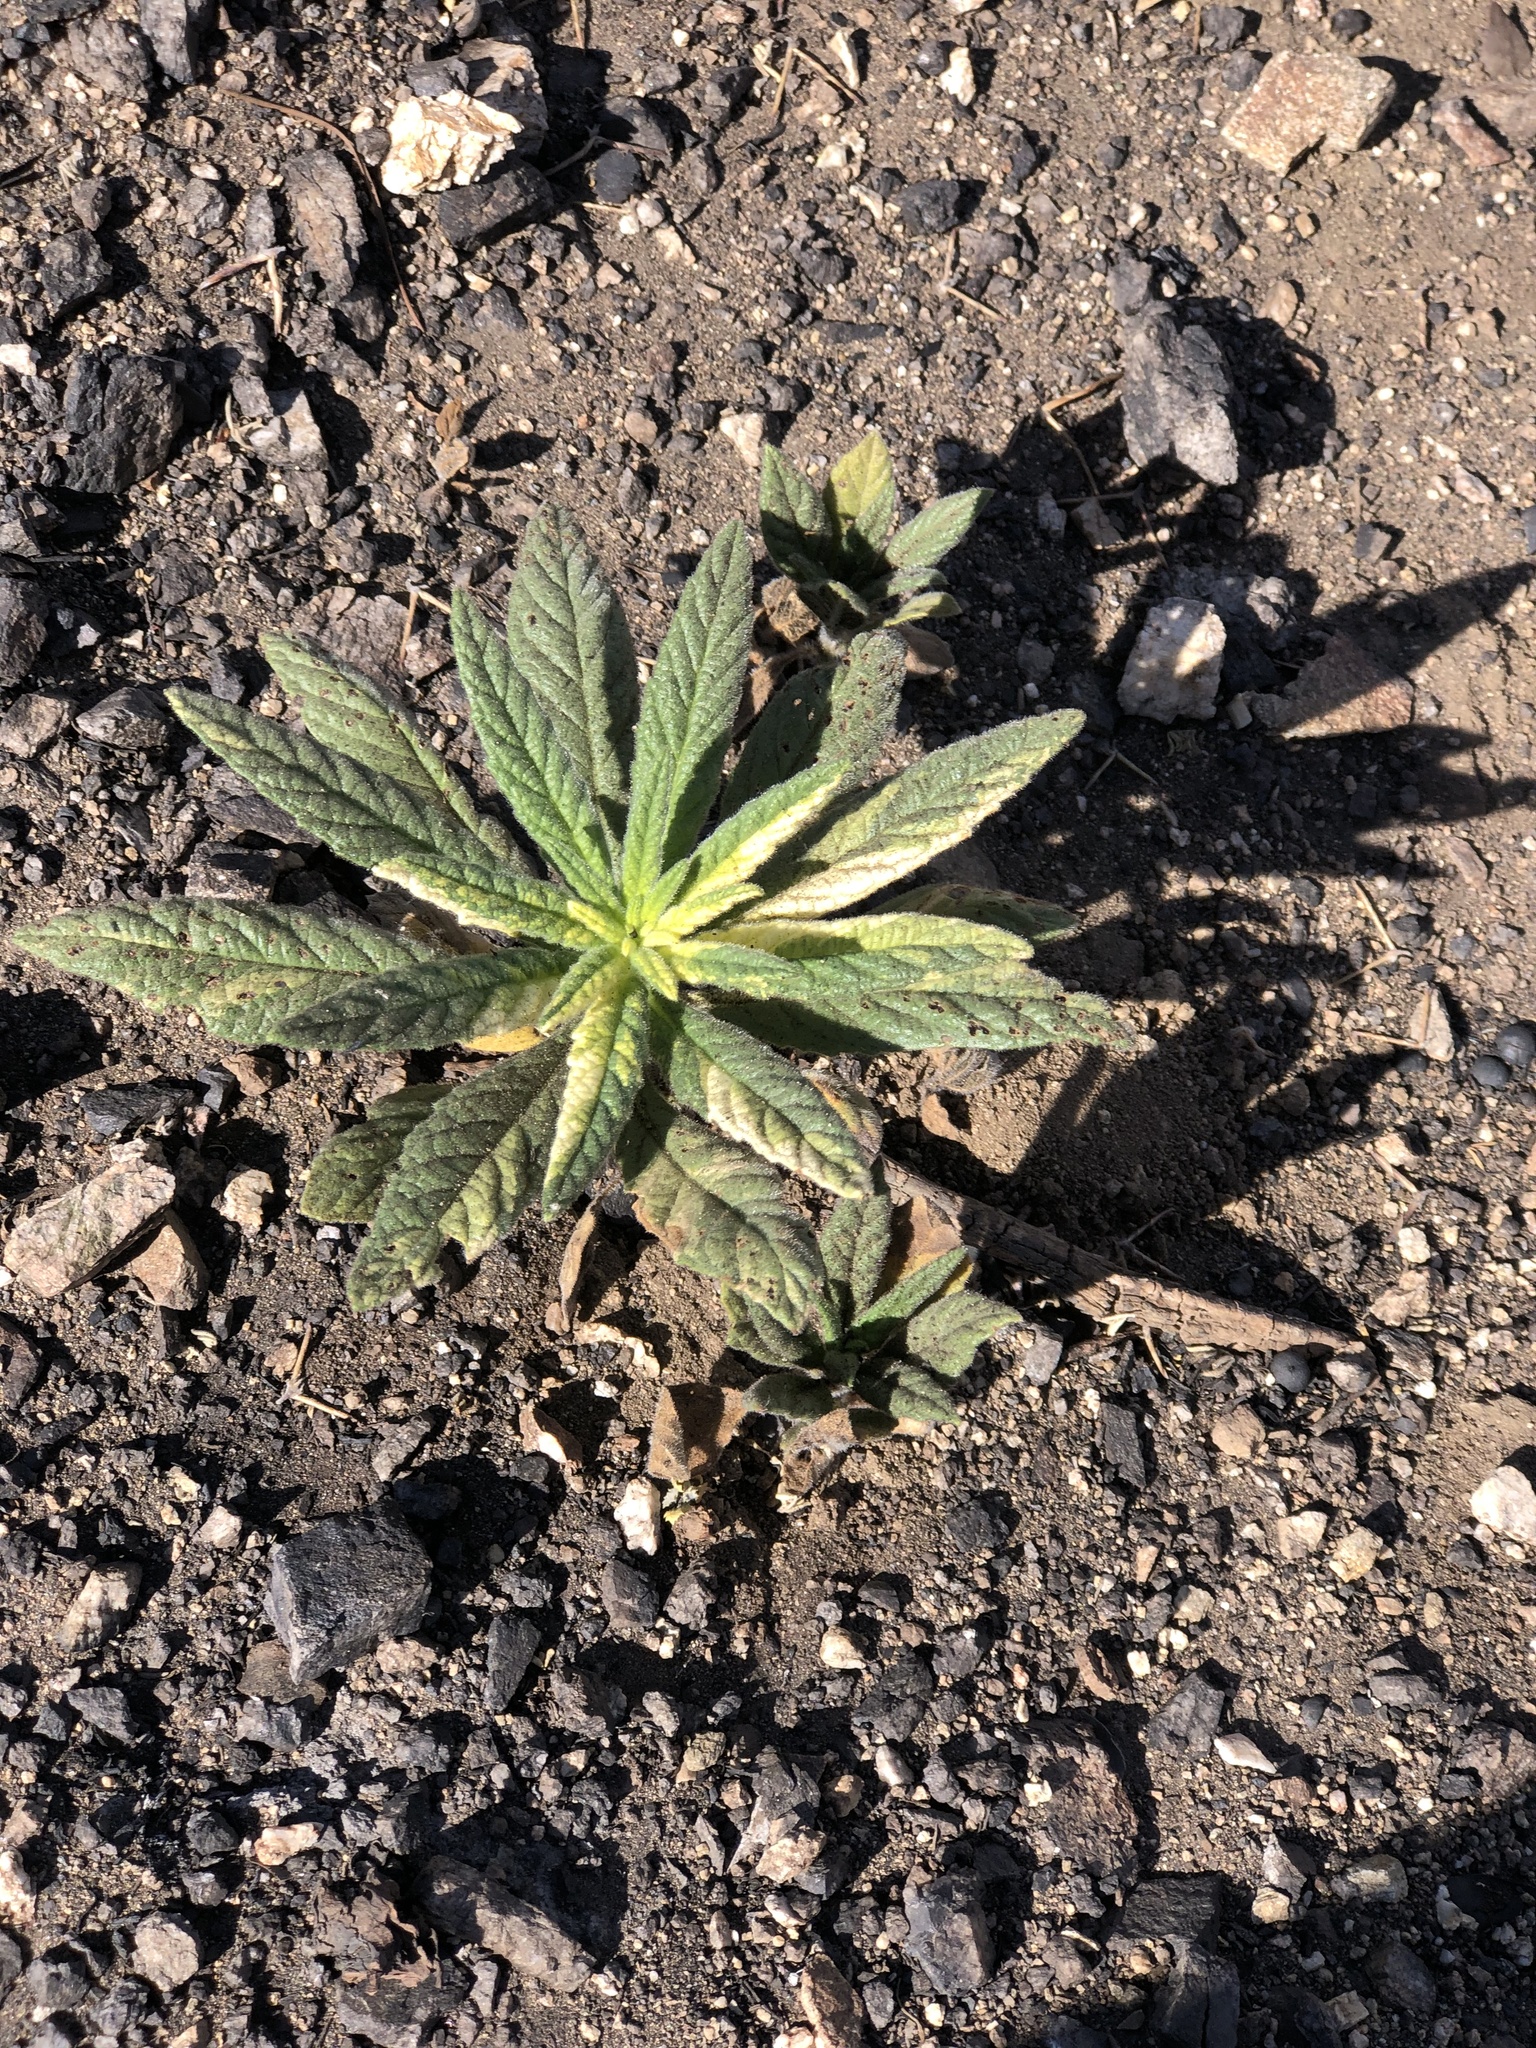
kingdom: Plantae
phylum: Tracheophyta
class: Magnoliopsida
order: Boraginales
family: Namaceae
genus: Turricula
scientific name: Turricula parryi
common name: Poodle-dog-bush
